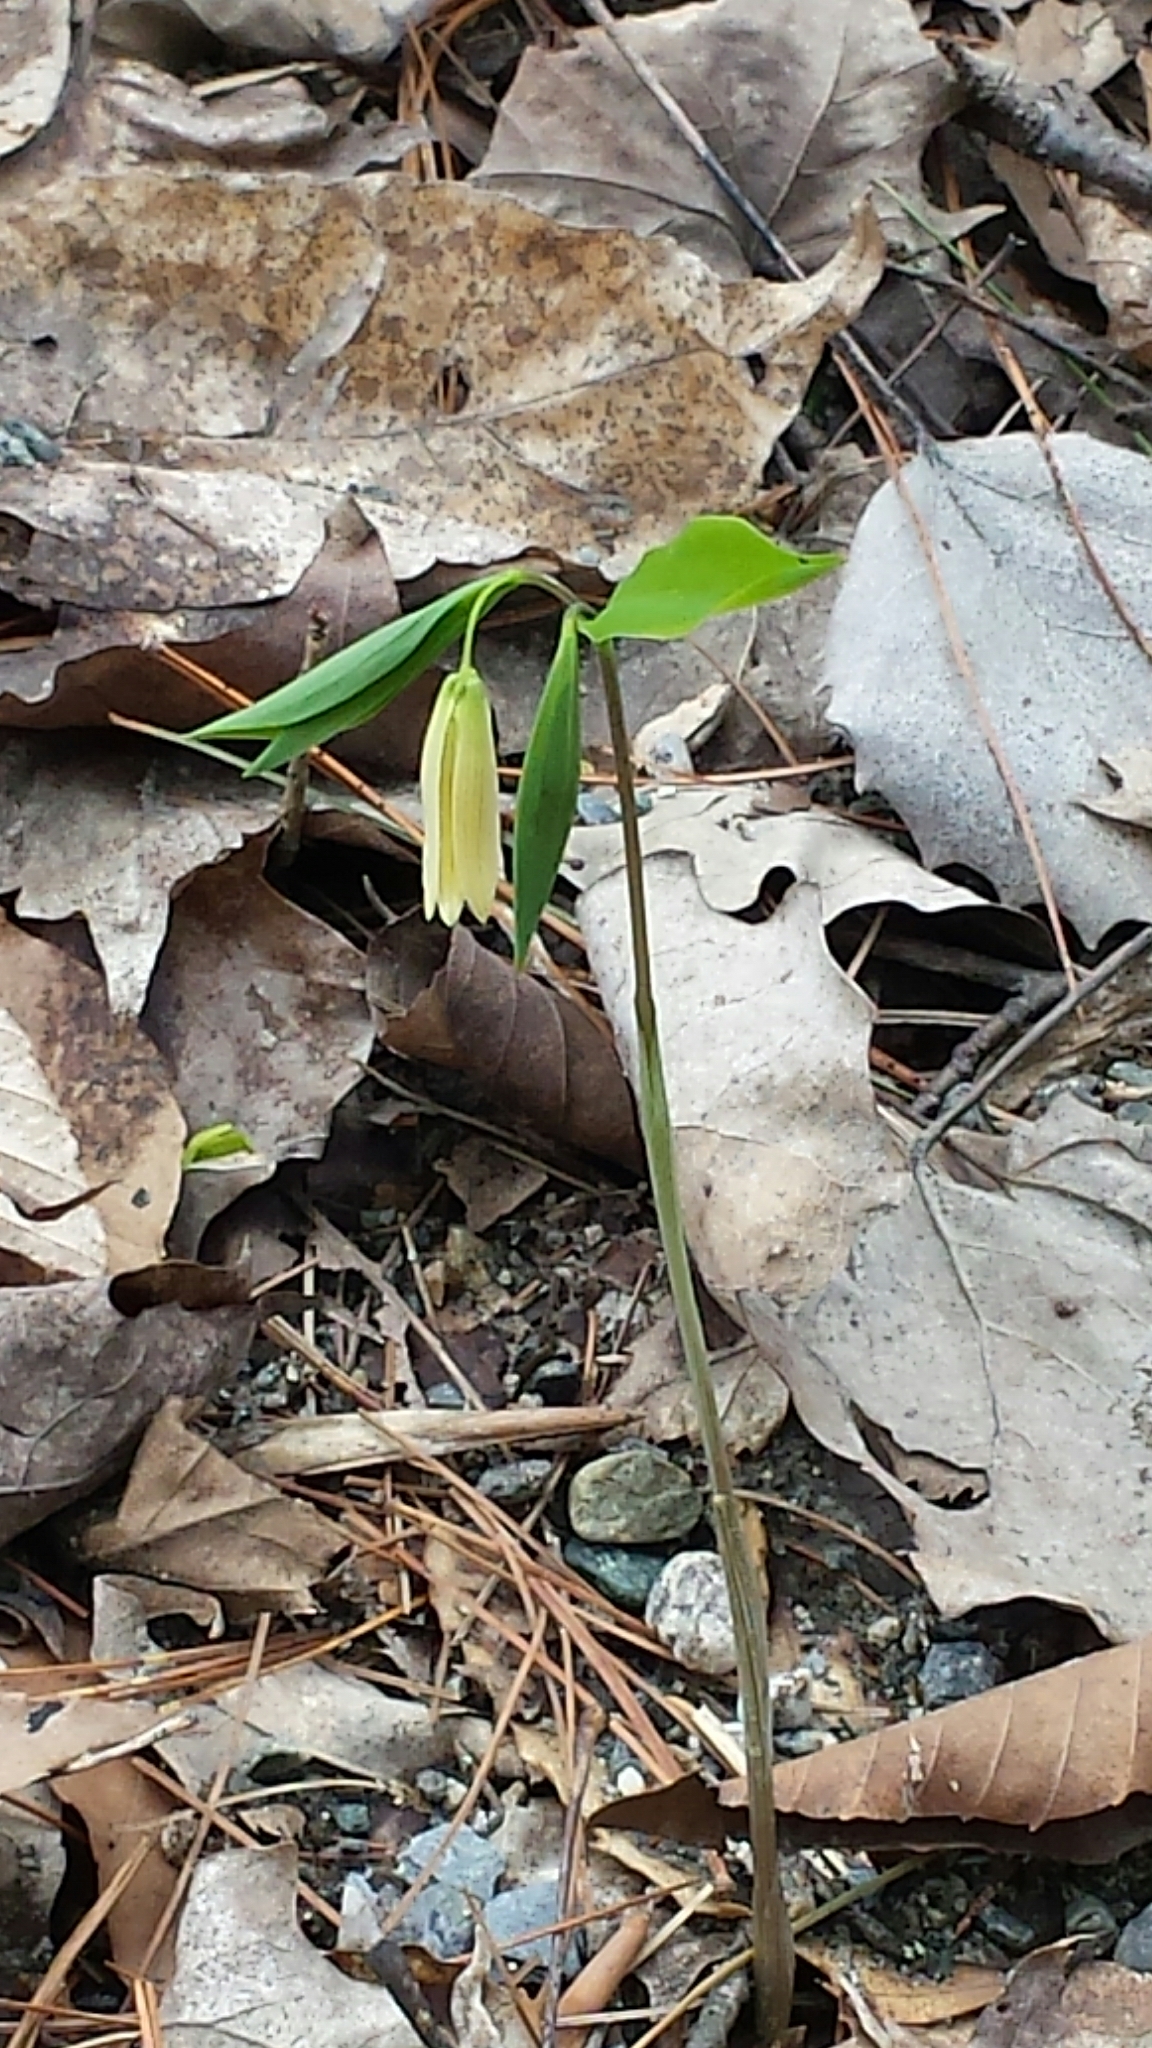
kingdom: Plantae
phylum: Tracheophyta
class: Liliopsida
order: Liliales
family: Colchicaceae
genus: Uvularia
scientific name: Uvularia sessilifolia
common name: Straw-lily
